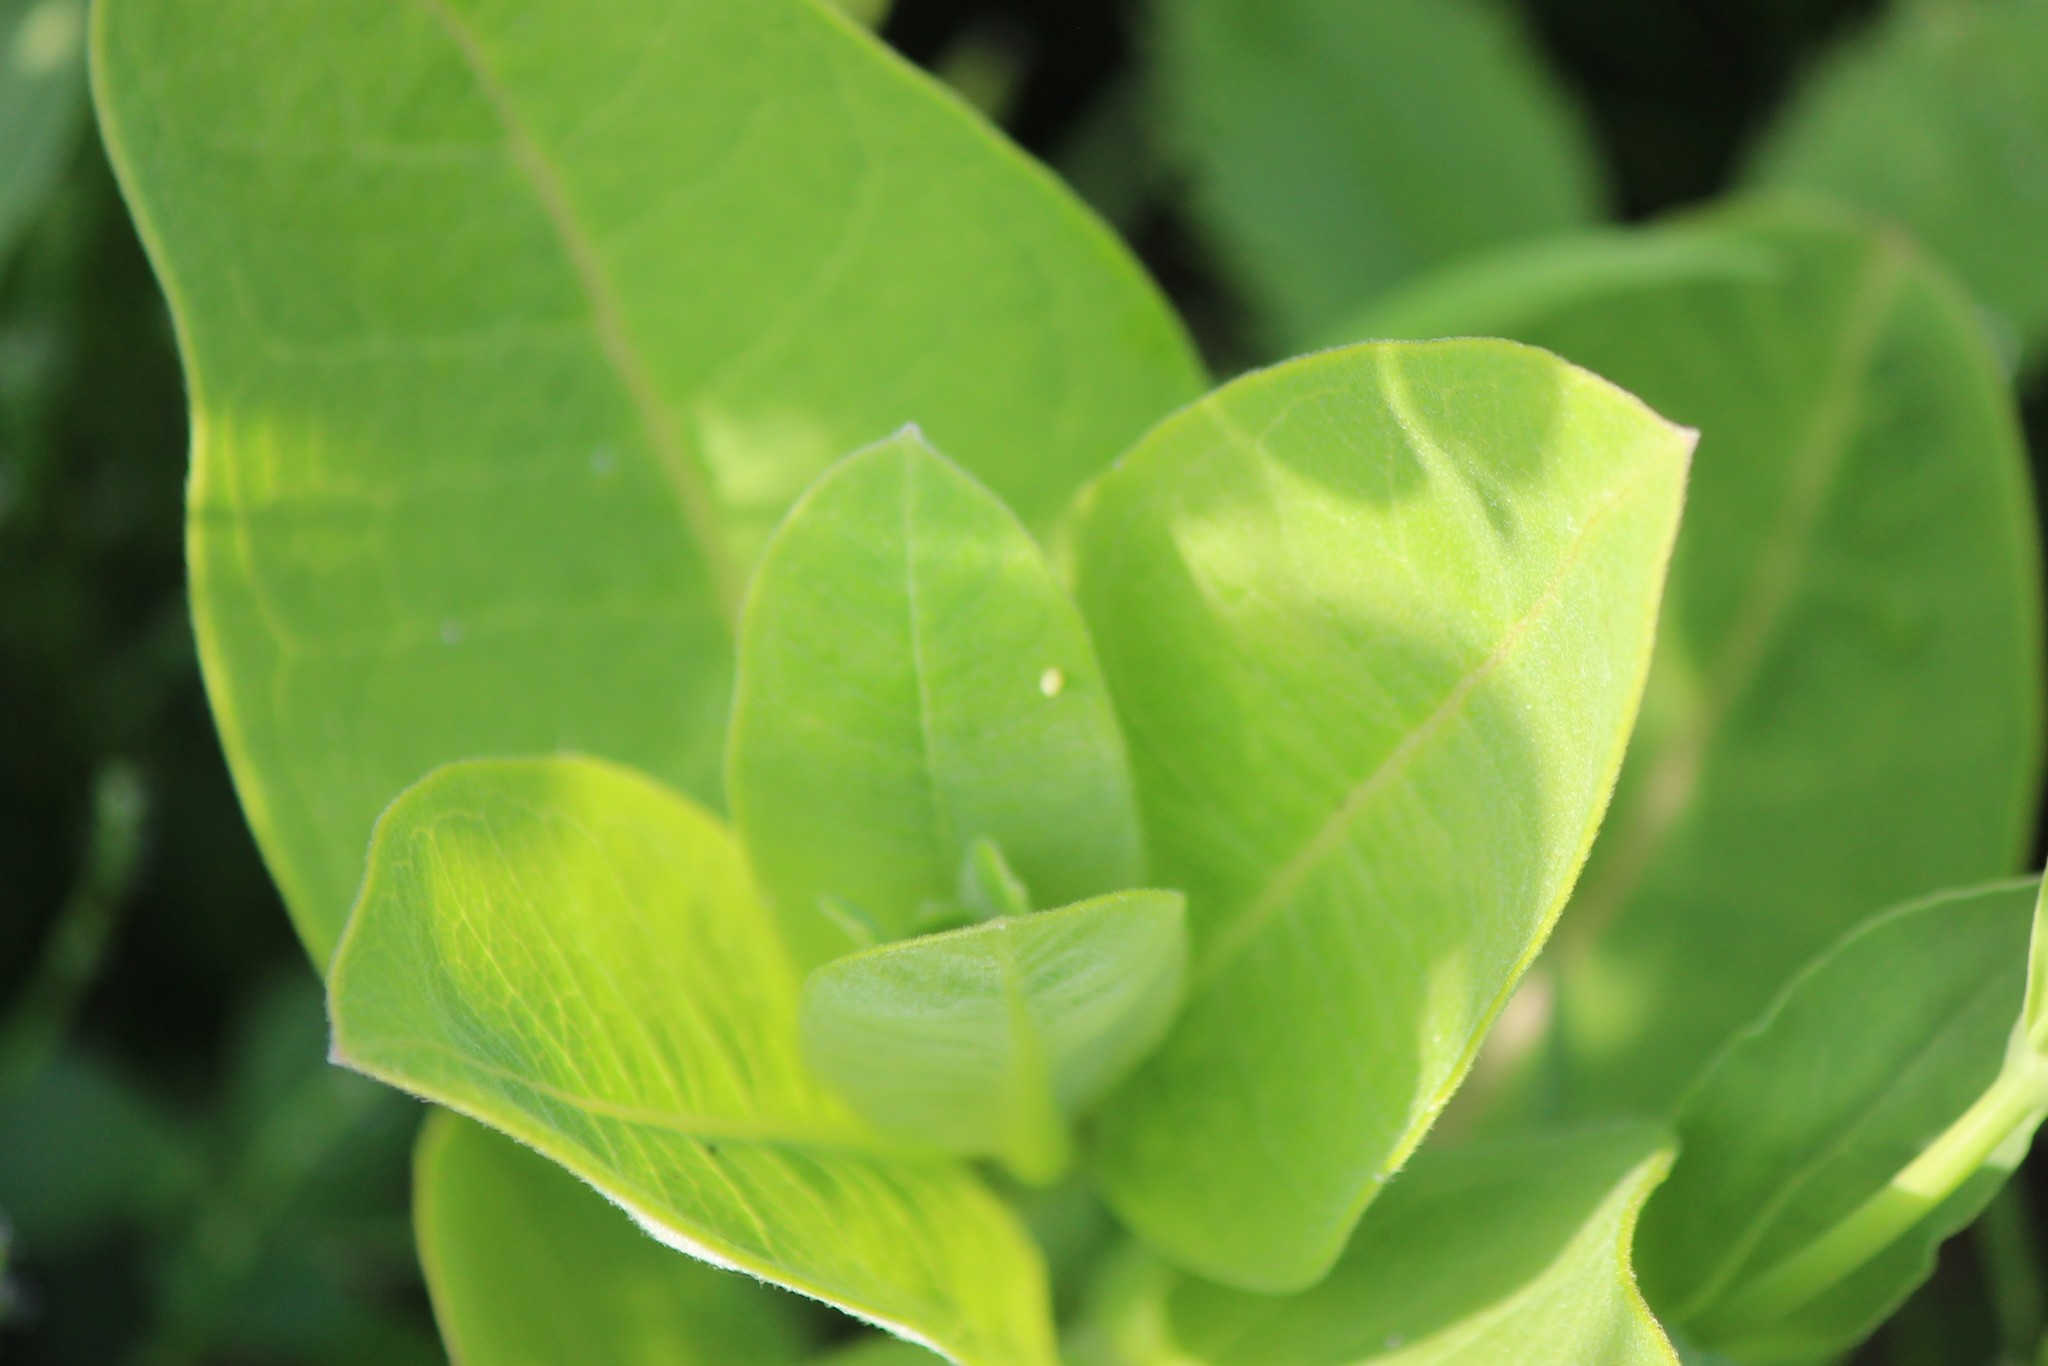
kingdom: Plantae
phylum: Tracheophyta
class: Magnoliopsida
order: Gentianales
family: Apocynaceae
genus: Asclepias
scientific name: Asclepias syriaca
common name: Common milkweed
